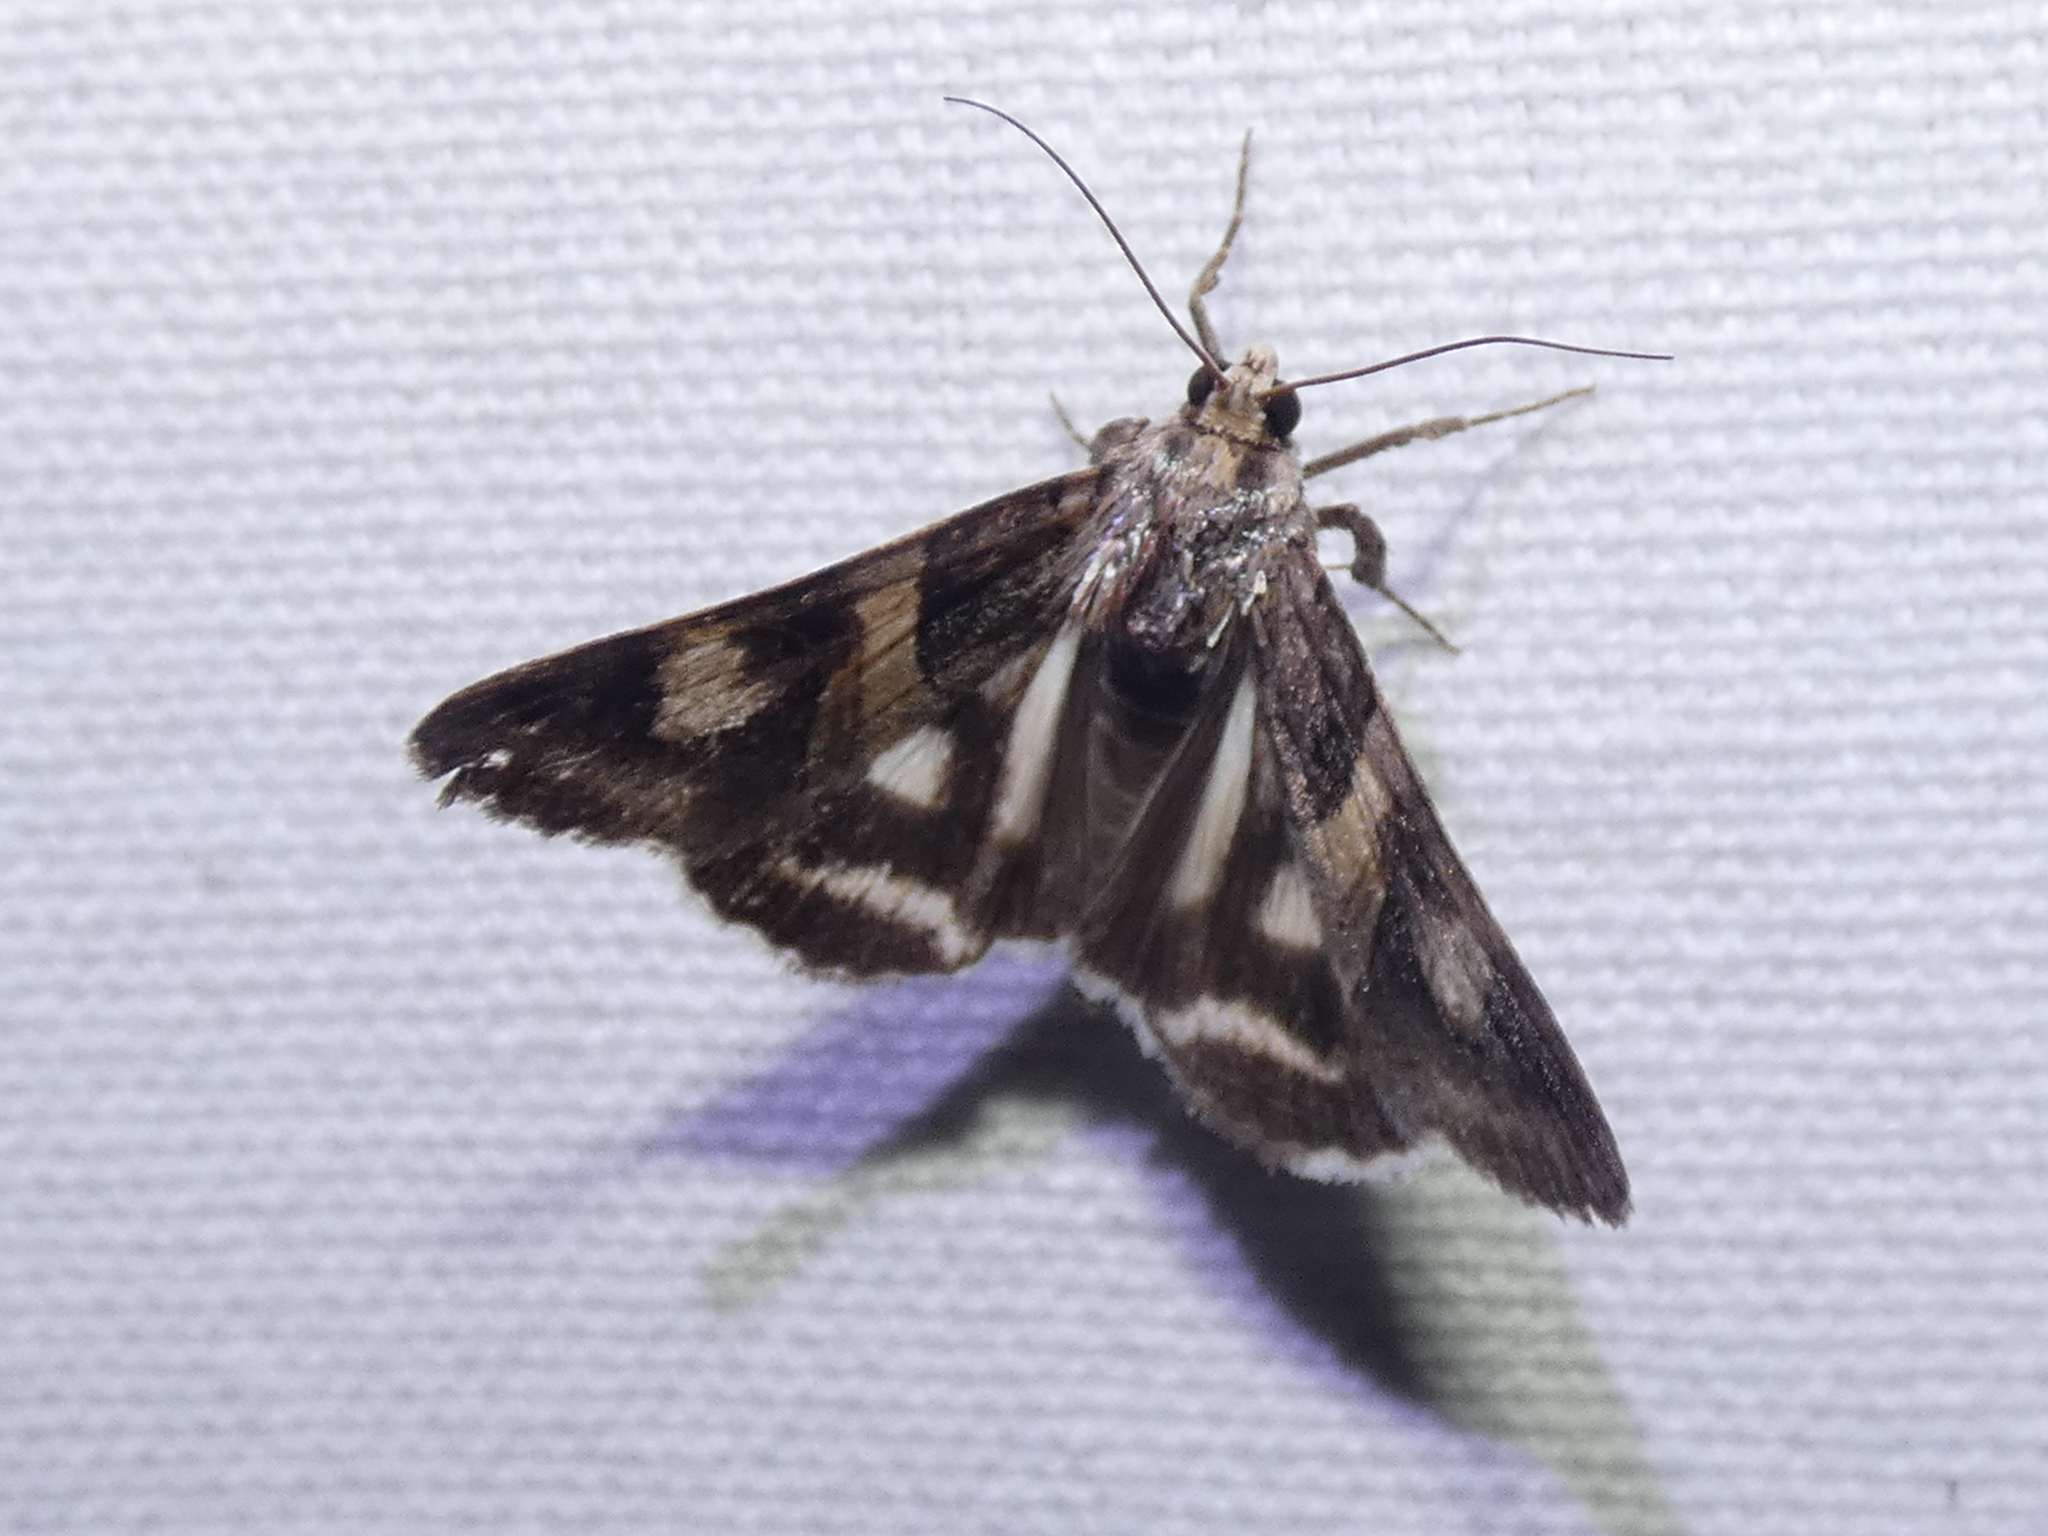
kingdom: Animalia
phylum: Arthropoda
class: Insecta
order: Lepidoptera
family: Erebidae
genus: Drasteria
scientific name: Drasteria grandirena
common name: Figure-seven moth
